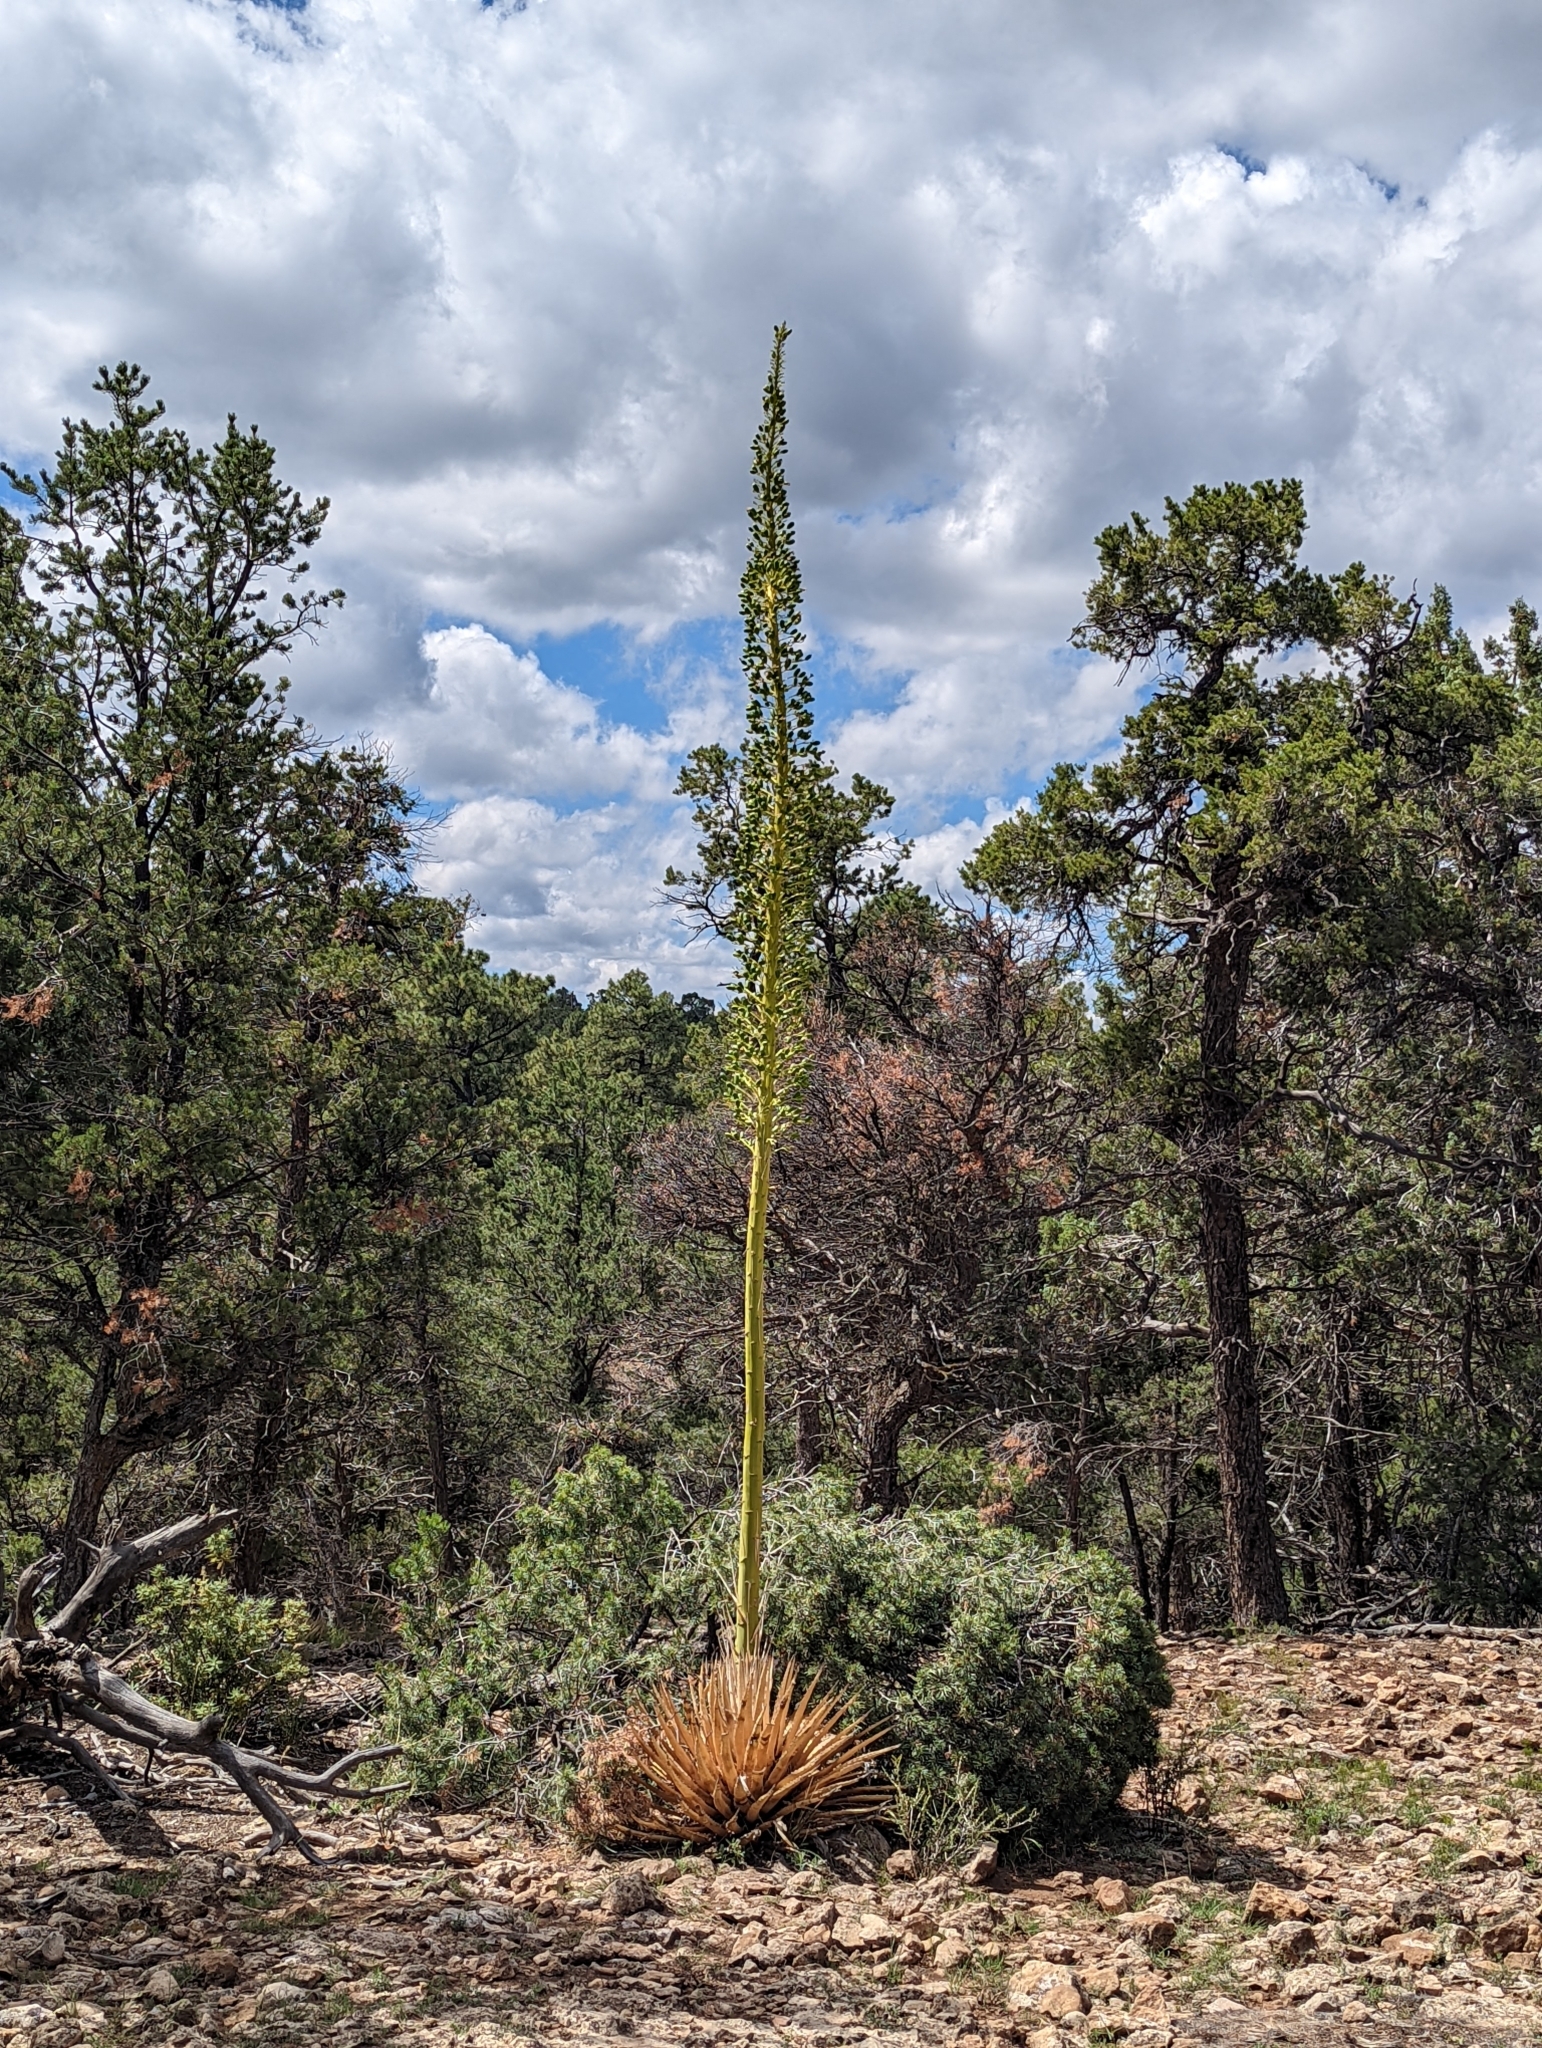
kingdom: Plantae
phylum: Tracheophyta
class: Liliopsida
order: Asparagales
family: Asparagaceae
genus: Agave
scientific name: Agave utahensis
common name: Utah agave
